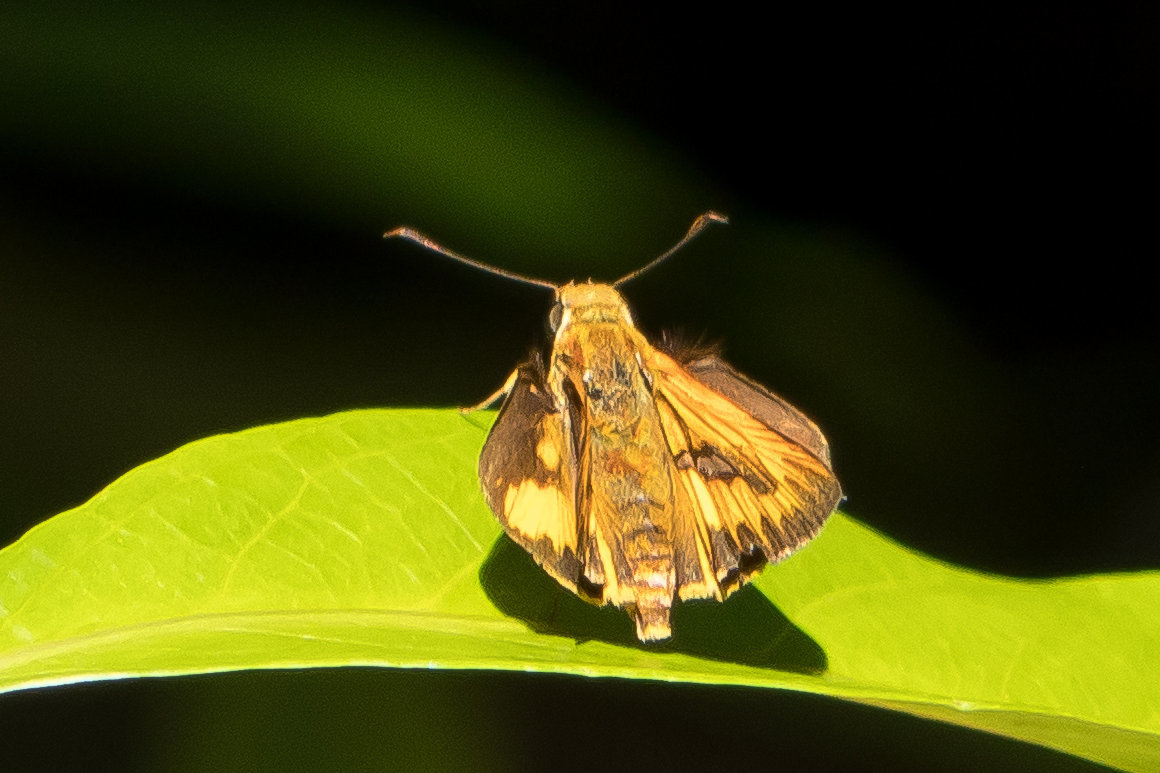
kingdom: Animalia
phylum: Arthropoda
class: Insecta
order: Lepidoptera
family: Hesperiidae
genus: Telicota
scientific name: Telicota colon
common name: Pale palm dart
